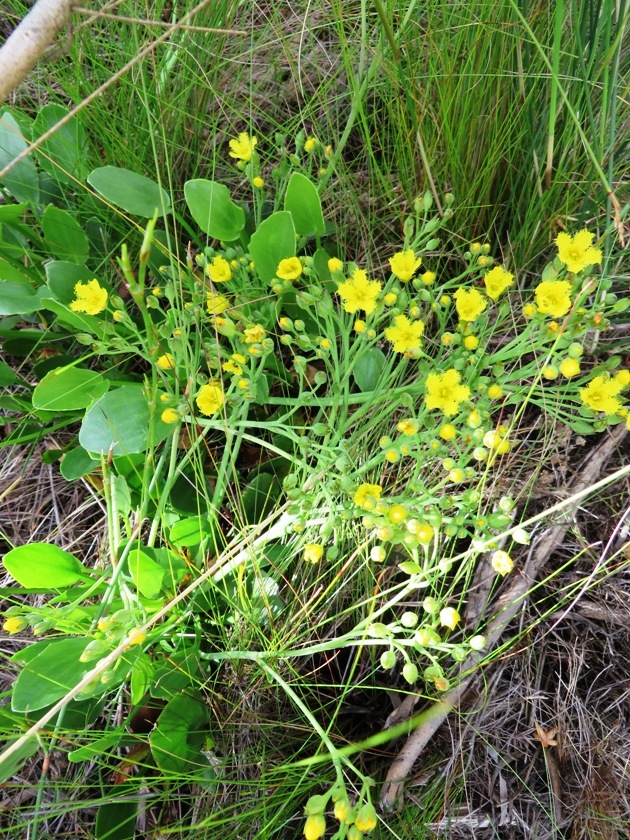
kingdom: Plantae
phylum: Tracheophyta
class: Magnoliopsida
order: Asterales
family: Menyanthaceae
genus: Villarsia
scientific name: Villarsia capensis
